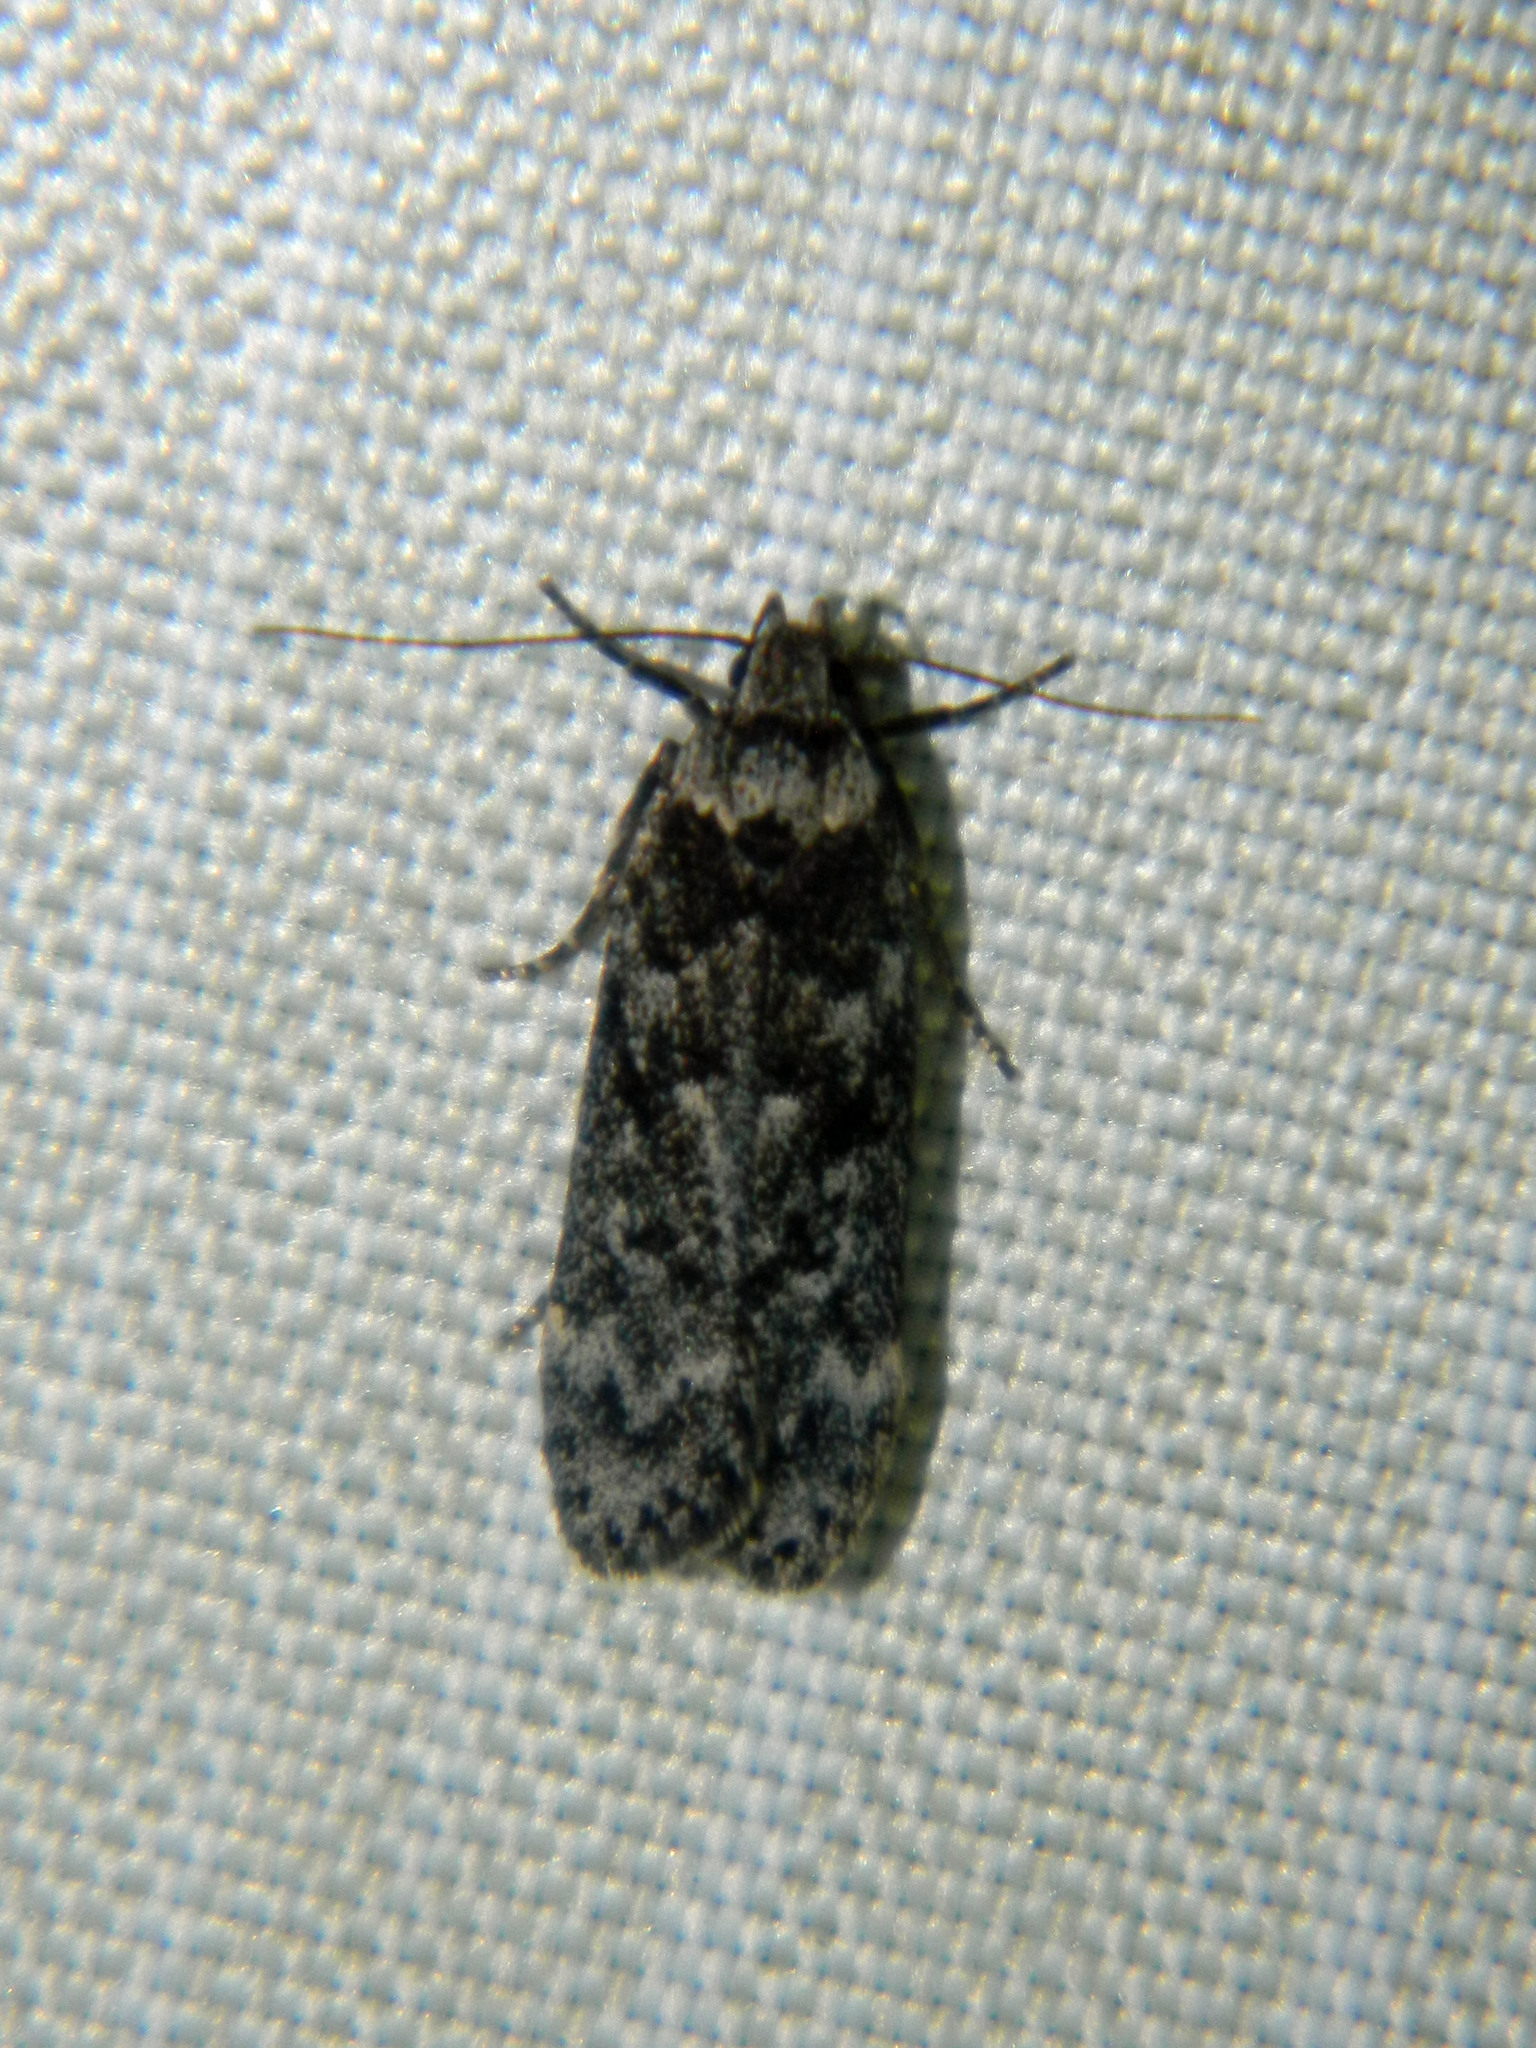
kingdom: Animalia
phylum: Arthropoda
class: Insecta
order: Lepidoptera
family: Gelechiidae
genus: Anacampsis
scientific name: Anacampsis niveopulvella
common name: Pale-headed aspen leafroller moth
